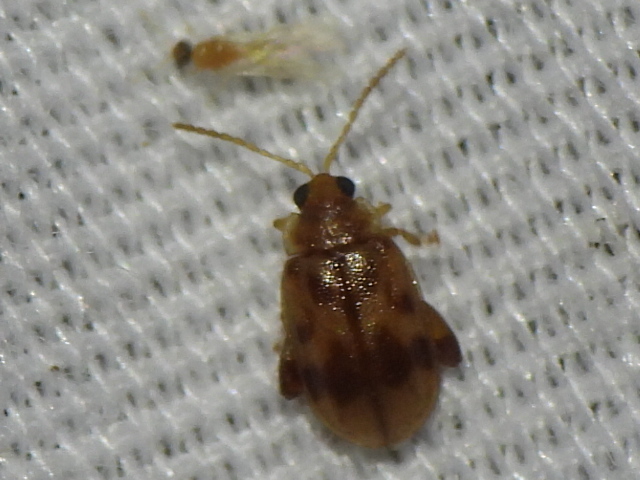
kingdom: Animalia
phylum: Arthropoda
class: Insecta
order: Coleoptera
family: Chrysomelidae
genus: Capraita
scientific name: Capraita sexmaculata
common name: Charlie brown flea beetle
